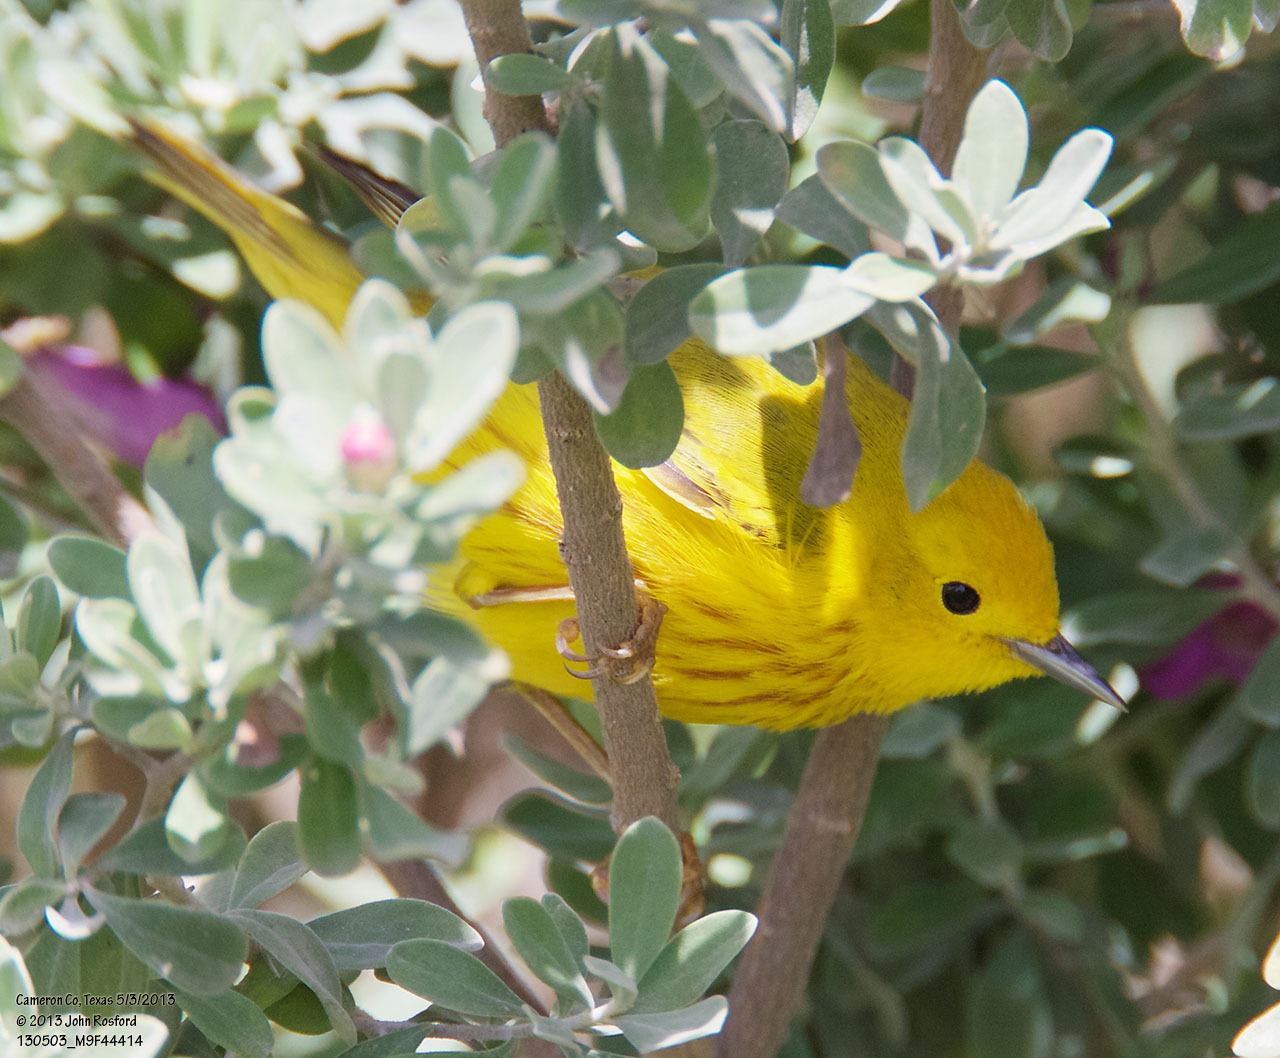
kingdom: Animalia
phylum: Chordata
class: Aves
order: Passeriformes
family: Parulidae
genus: Setophaga
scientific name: Setophaga petechia
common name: Yellow warbler
